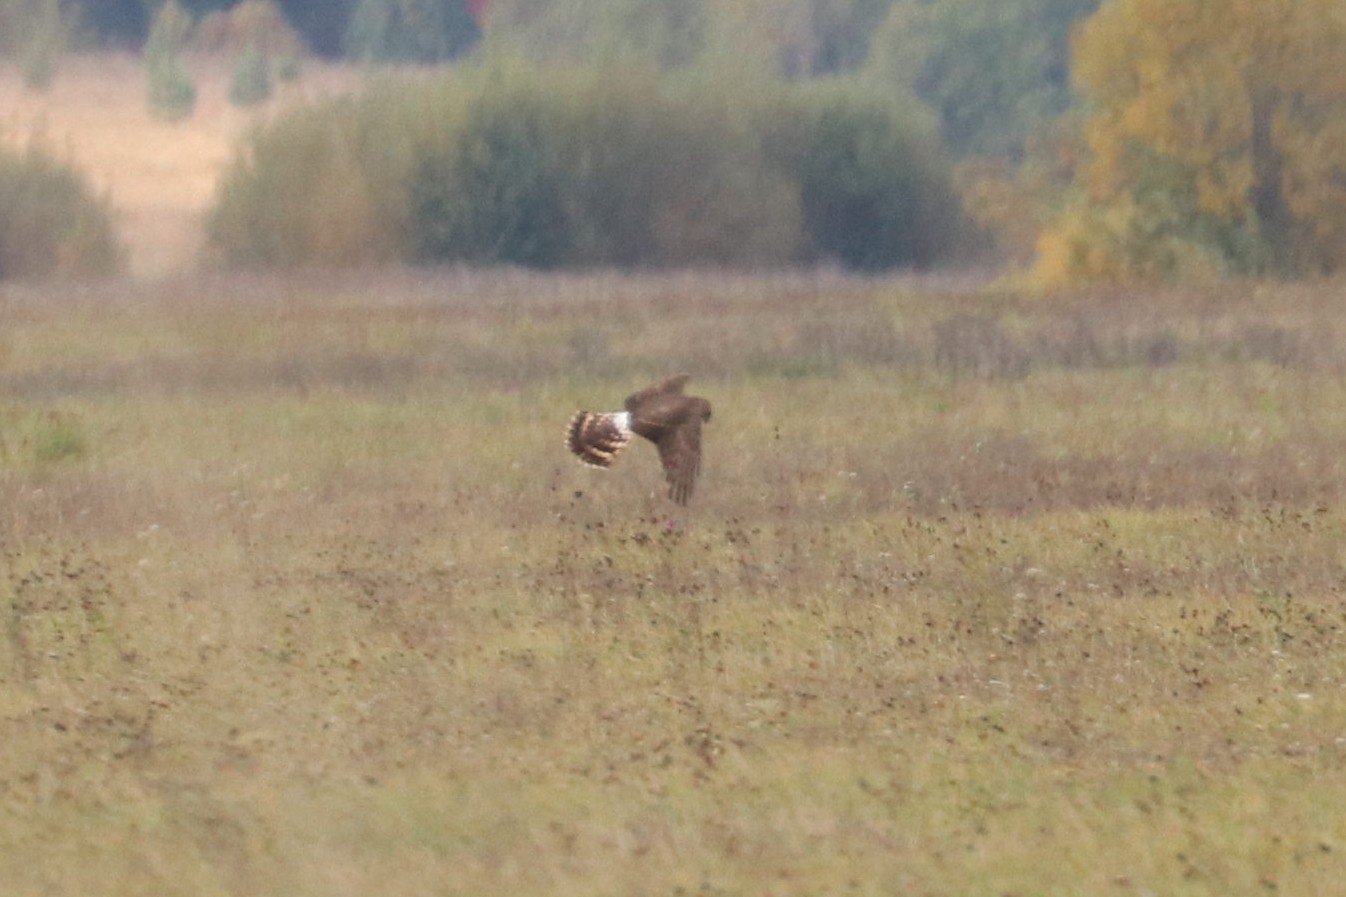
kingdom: Animalia
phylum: Chordata
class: Aves
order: Accipitriformes
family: Accipitridae
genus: Circus
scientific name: Circus cyaneus
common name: Hen harrier
